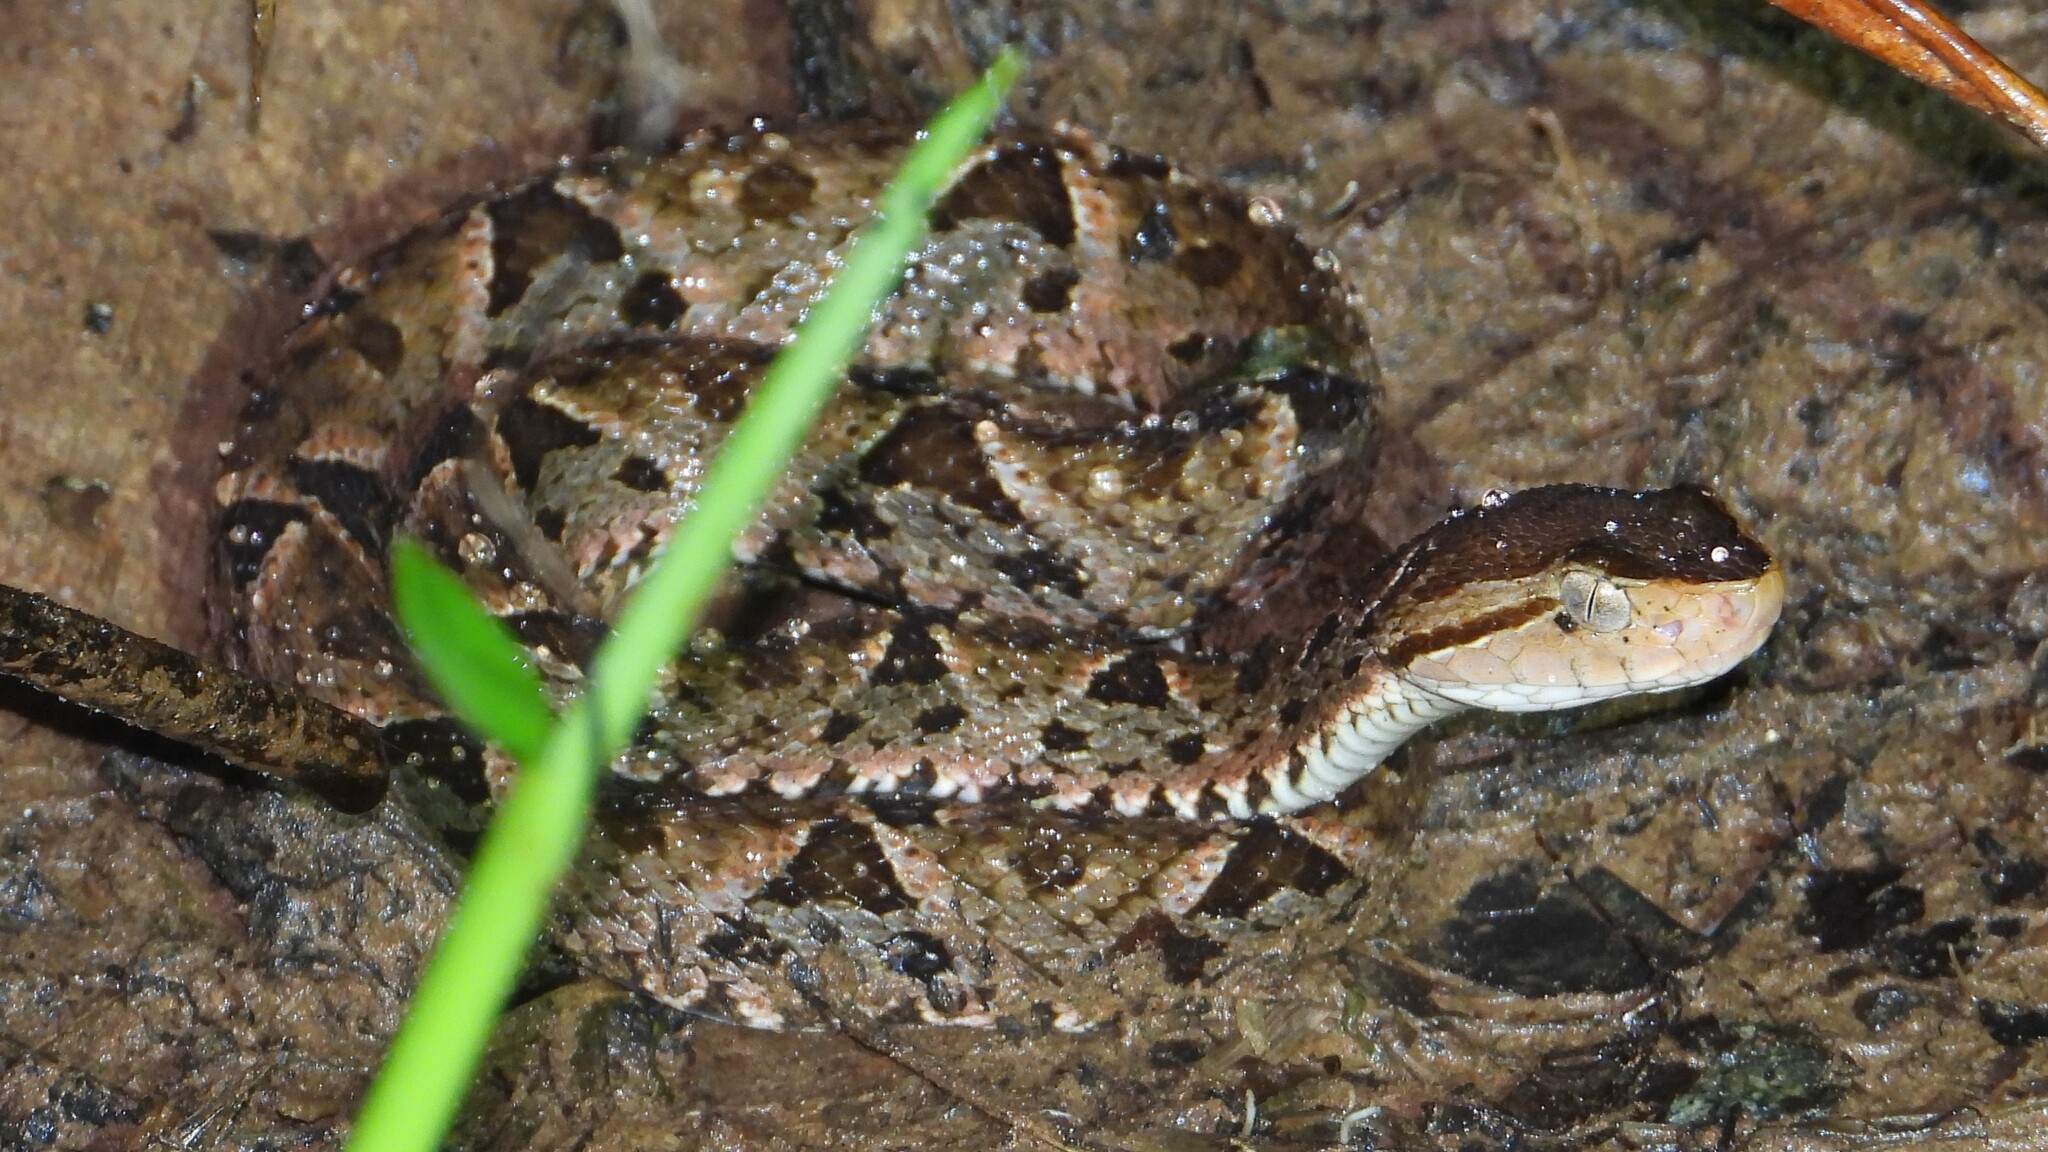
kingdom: Animalia
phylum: Chordata
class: Squamata
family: Viperidae
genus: Bothrops
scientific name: Bothrops asper
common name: Terciopelo
